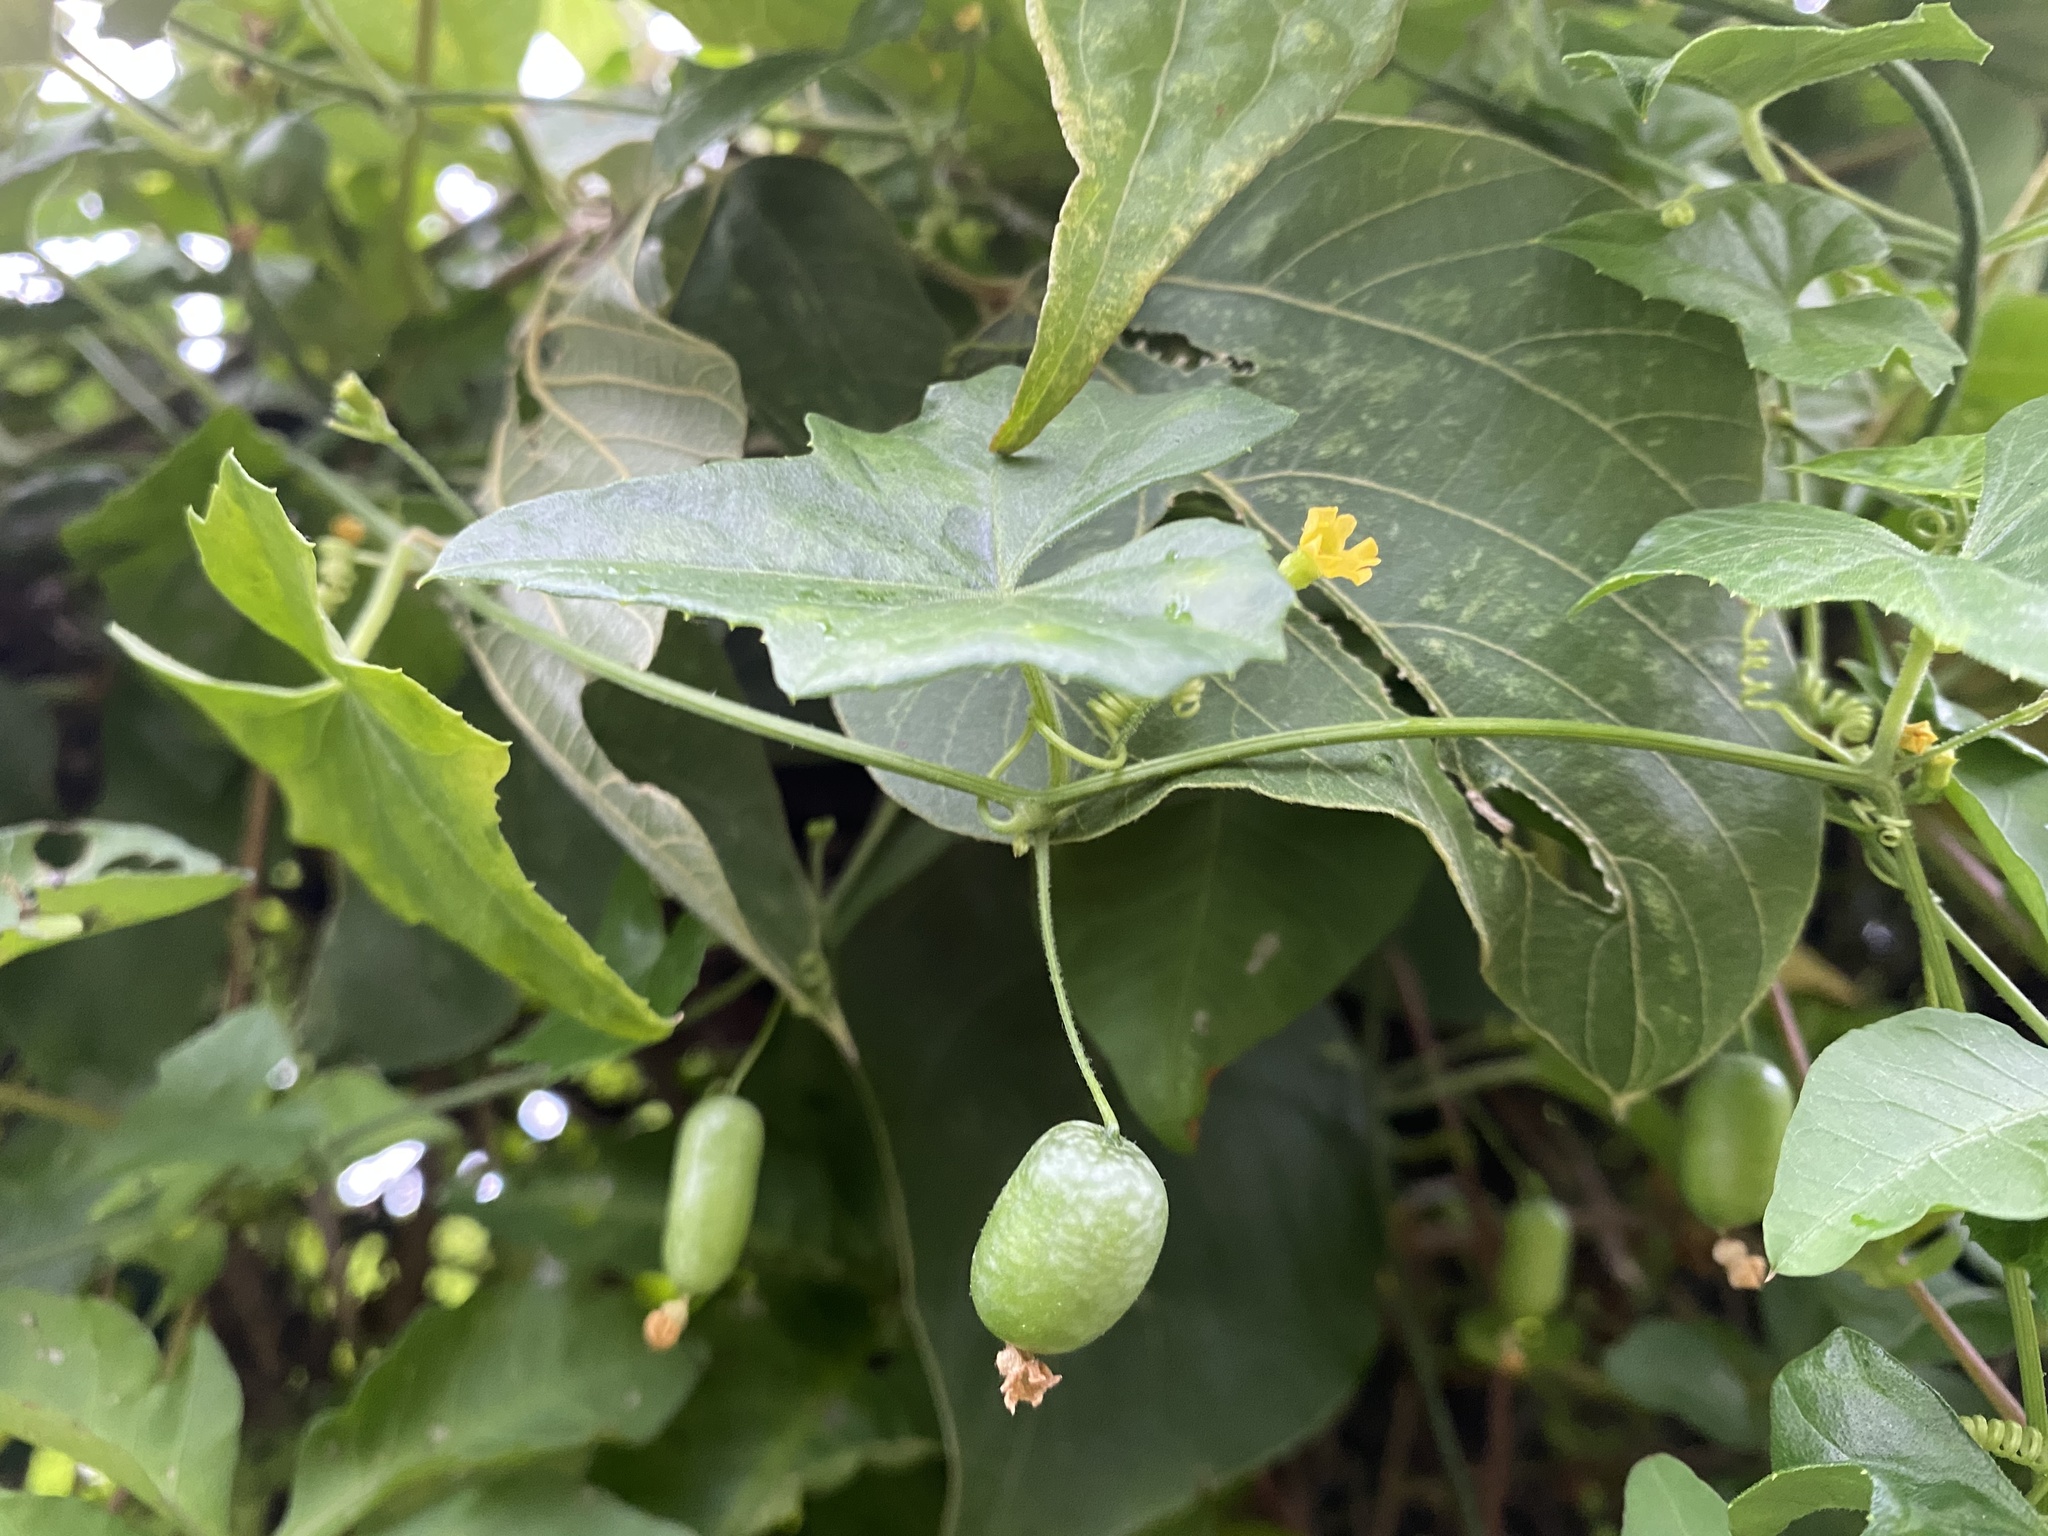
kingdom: Plantae
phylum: Tracheophyta
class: Magnoliopsida
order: Cucurbitales
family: Cucurbitaceae
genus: Melothria
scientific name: Melothria pendula
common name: Creeping-cucumber
